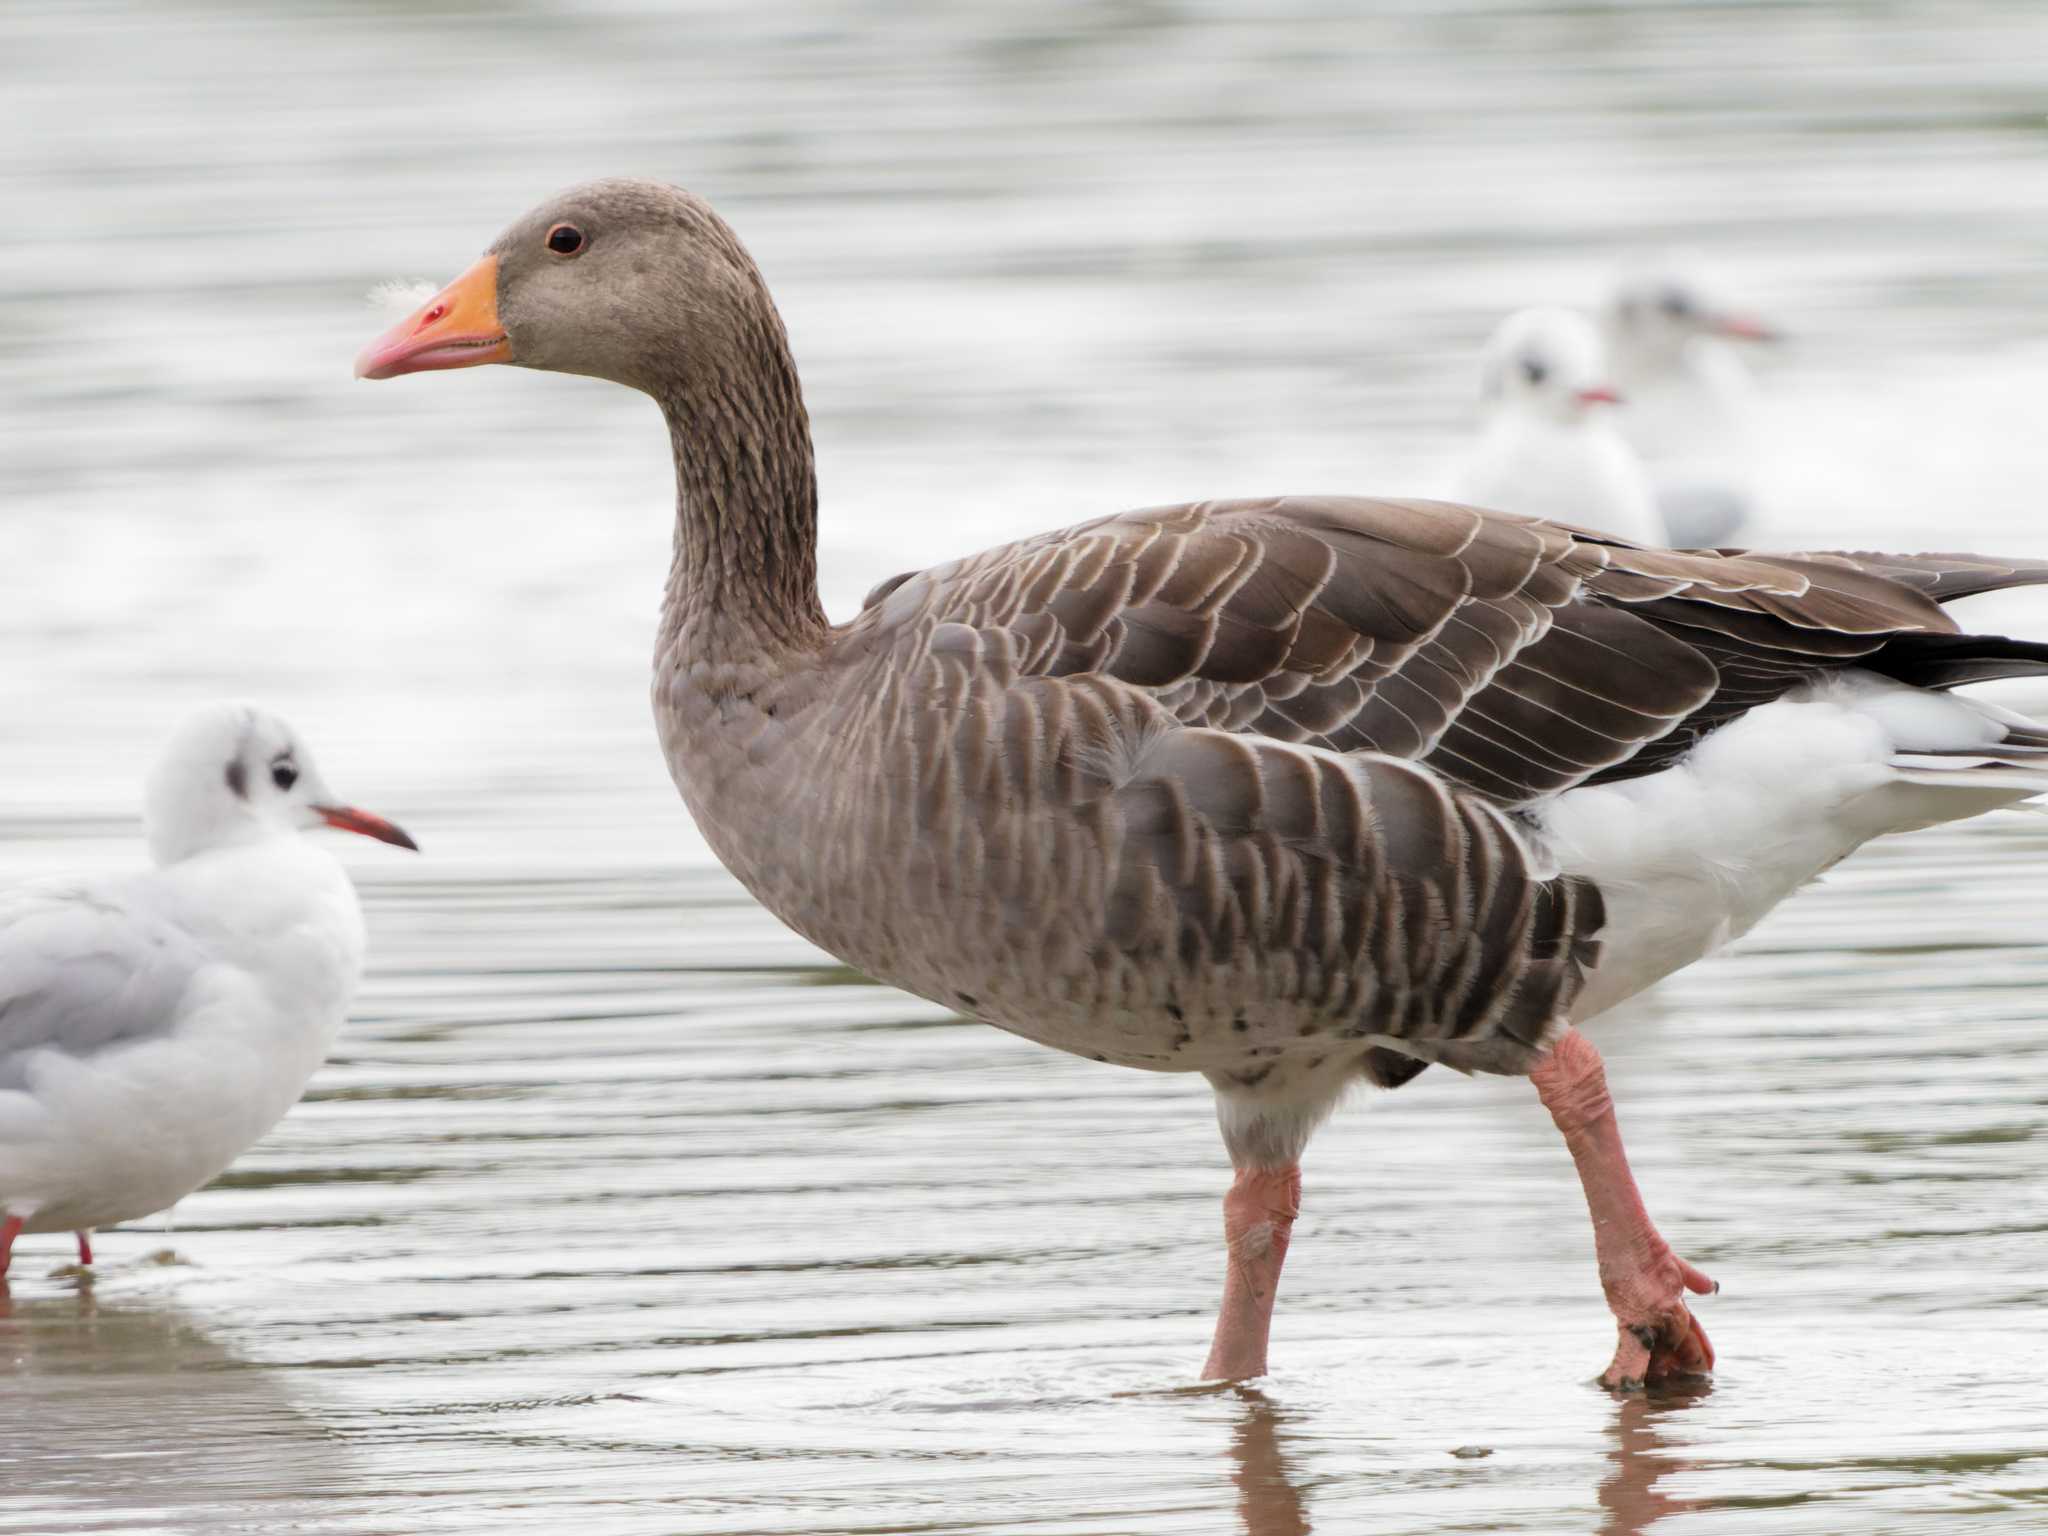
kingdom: Animalia
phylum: Chordata
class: Aves
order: Anseriformes
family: Anatidae
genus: Anser
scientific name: Anser anser
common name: Greylag goose
